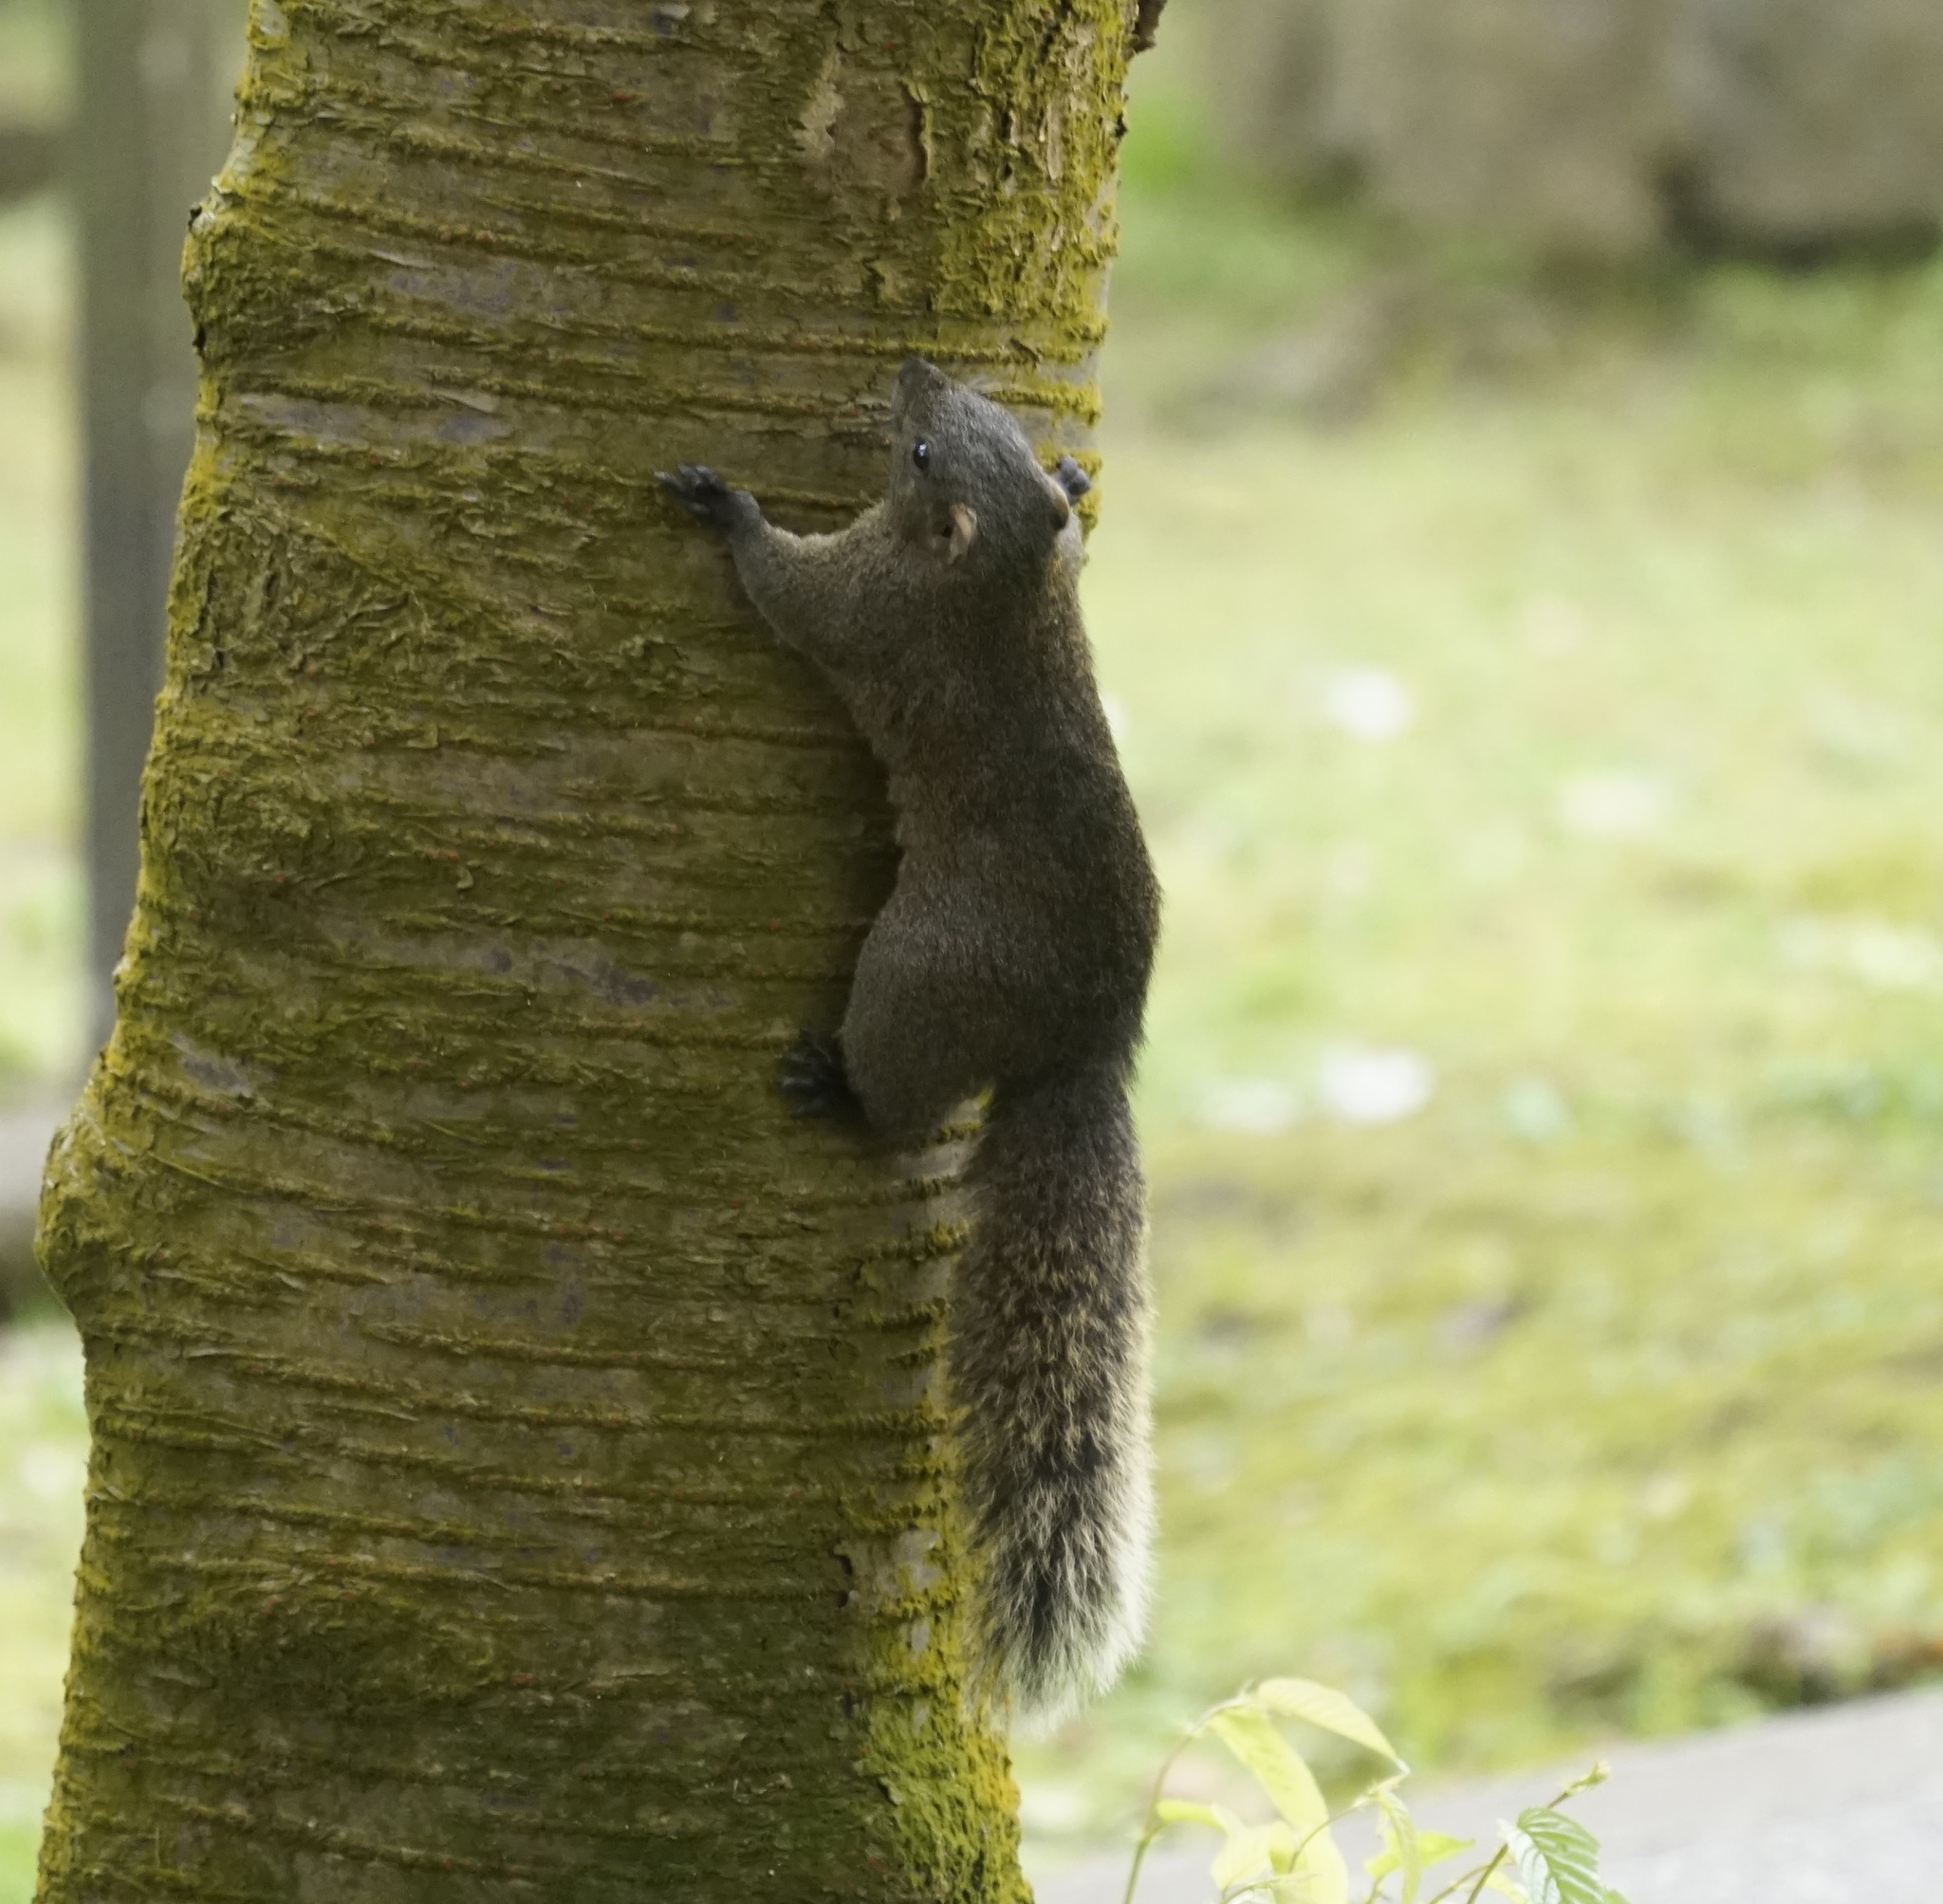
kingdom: Animalia
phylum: Chordata
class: Mammalia
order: Rodentia
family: Sciuridae
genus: Callosciurus
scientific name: Callosciurus erythraeus
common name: Pallas's squirrel
